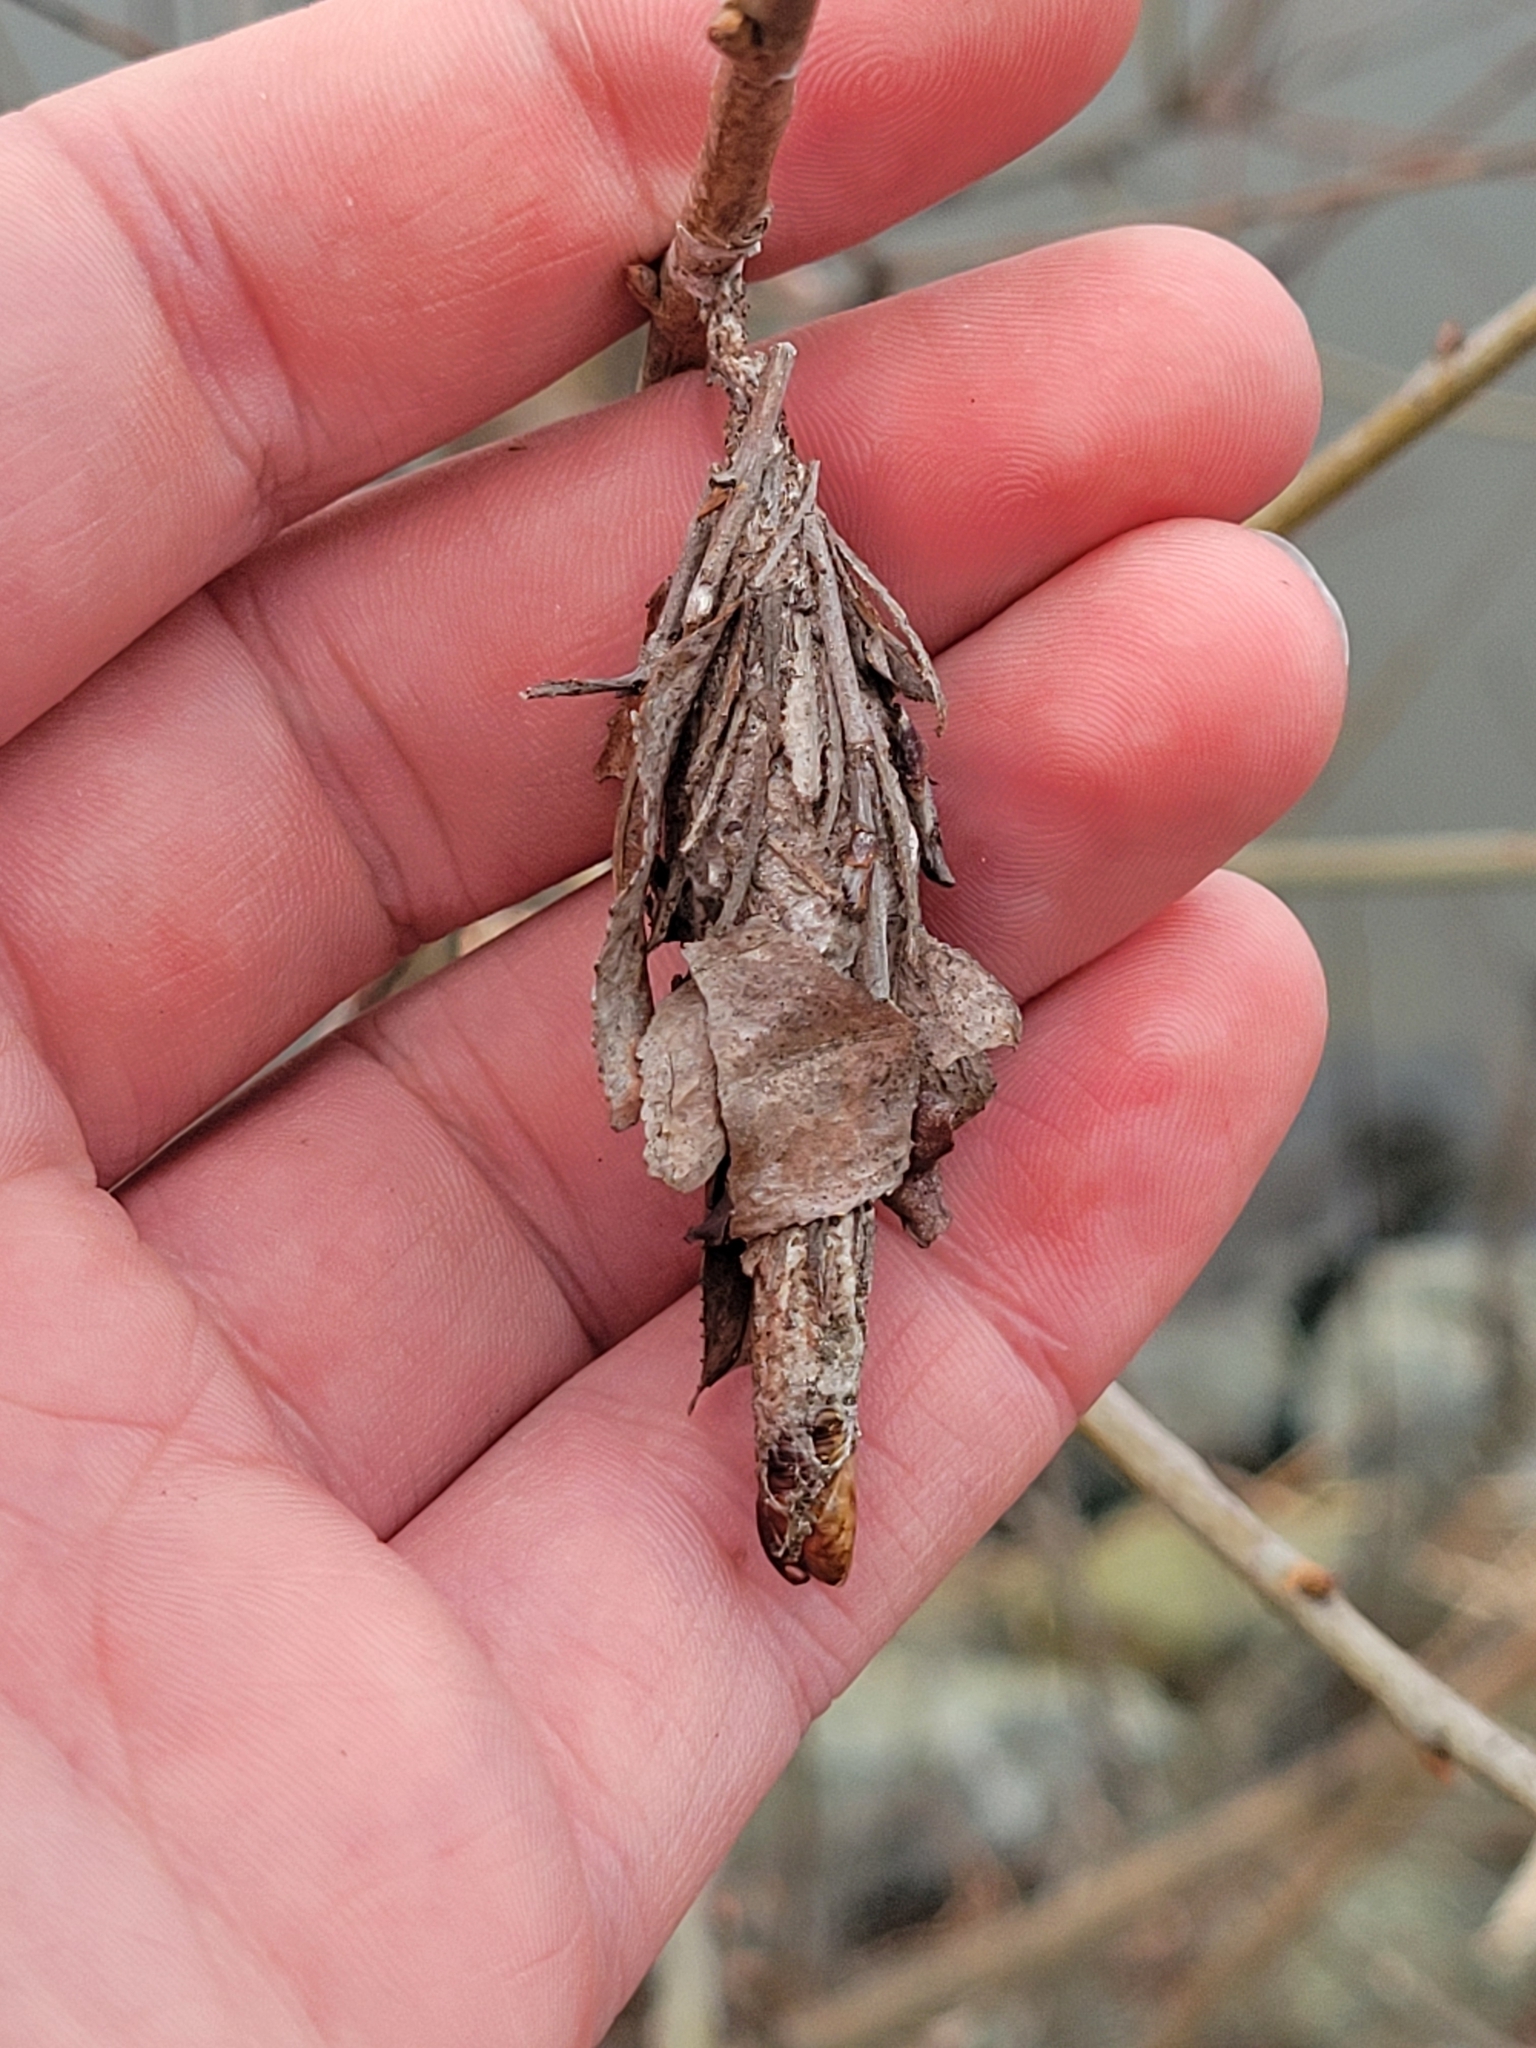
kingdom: Animalia
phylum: Arthropoda
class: Insecta
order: Lepidoptera
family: Psychidae
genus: Thyridopteryx
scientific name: Thyridopteryx ephemeraeformis
